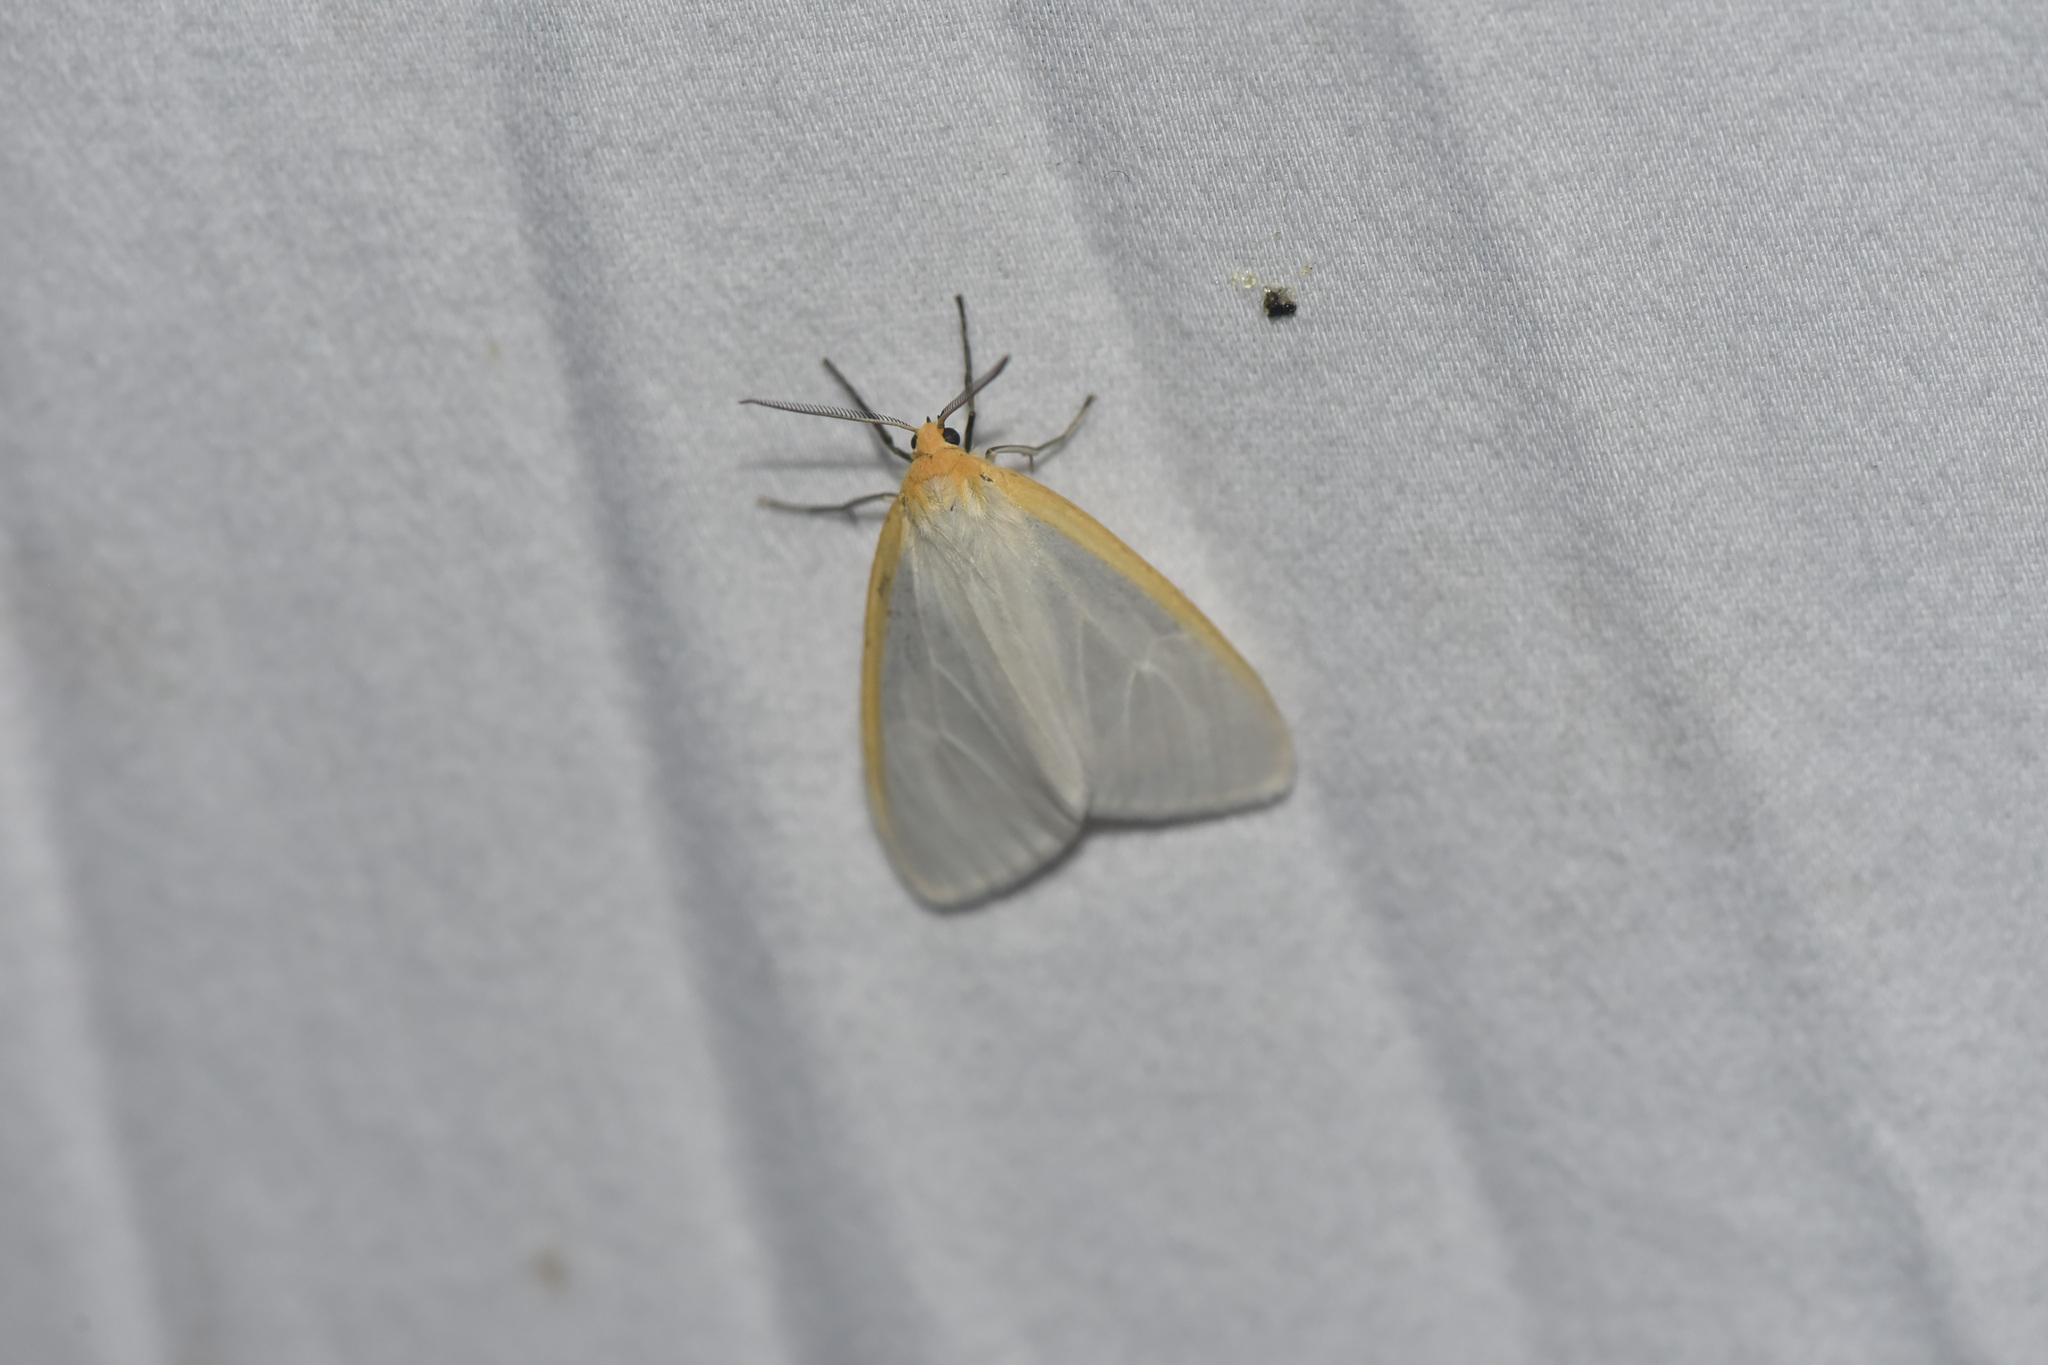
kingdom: Animalia
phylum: Arthropoda
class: Insecta
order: Lepidoptera
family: Erebidae
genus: Cycnia
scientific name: Cycnia tenera
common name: Delicate cycnia moth
